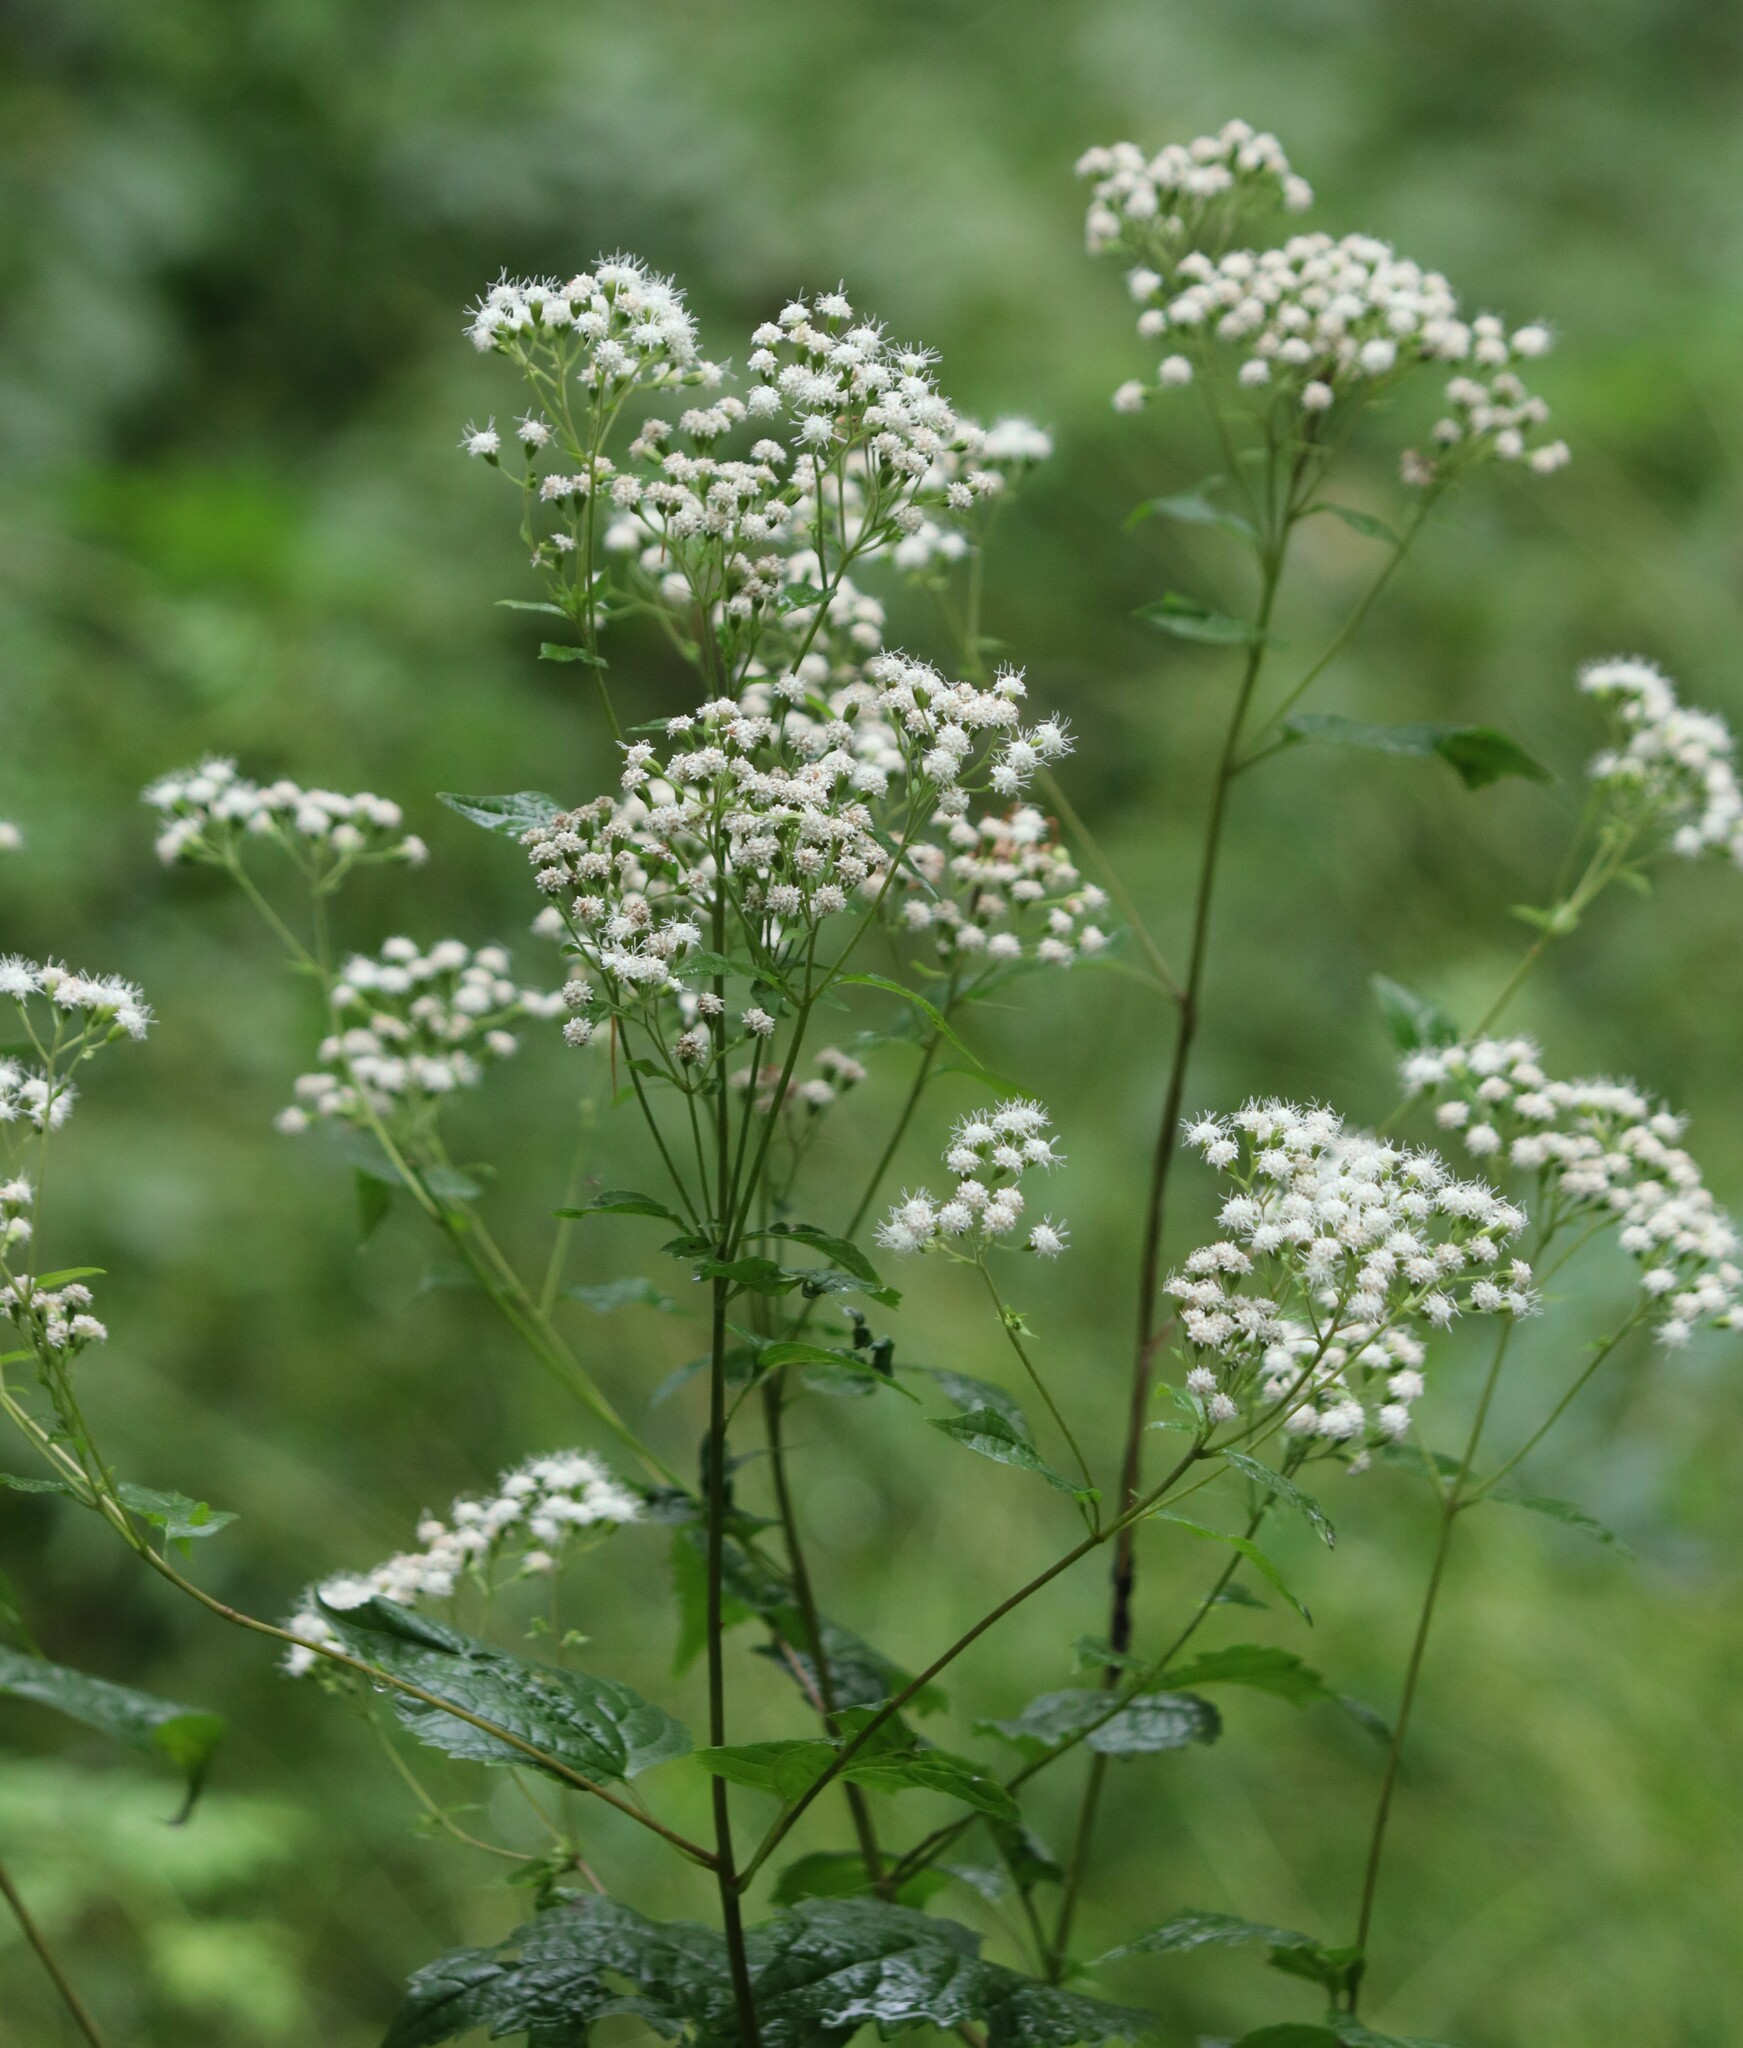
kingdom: Plantae
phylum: Tracheophyta
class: Magnoliopsida
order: Asterales
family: Asteraceae
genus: Ageratina
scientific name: Ageratina altissima
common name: White snakeroot
